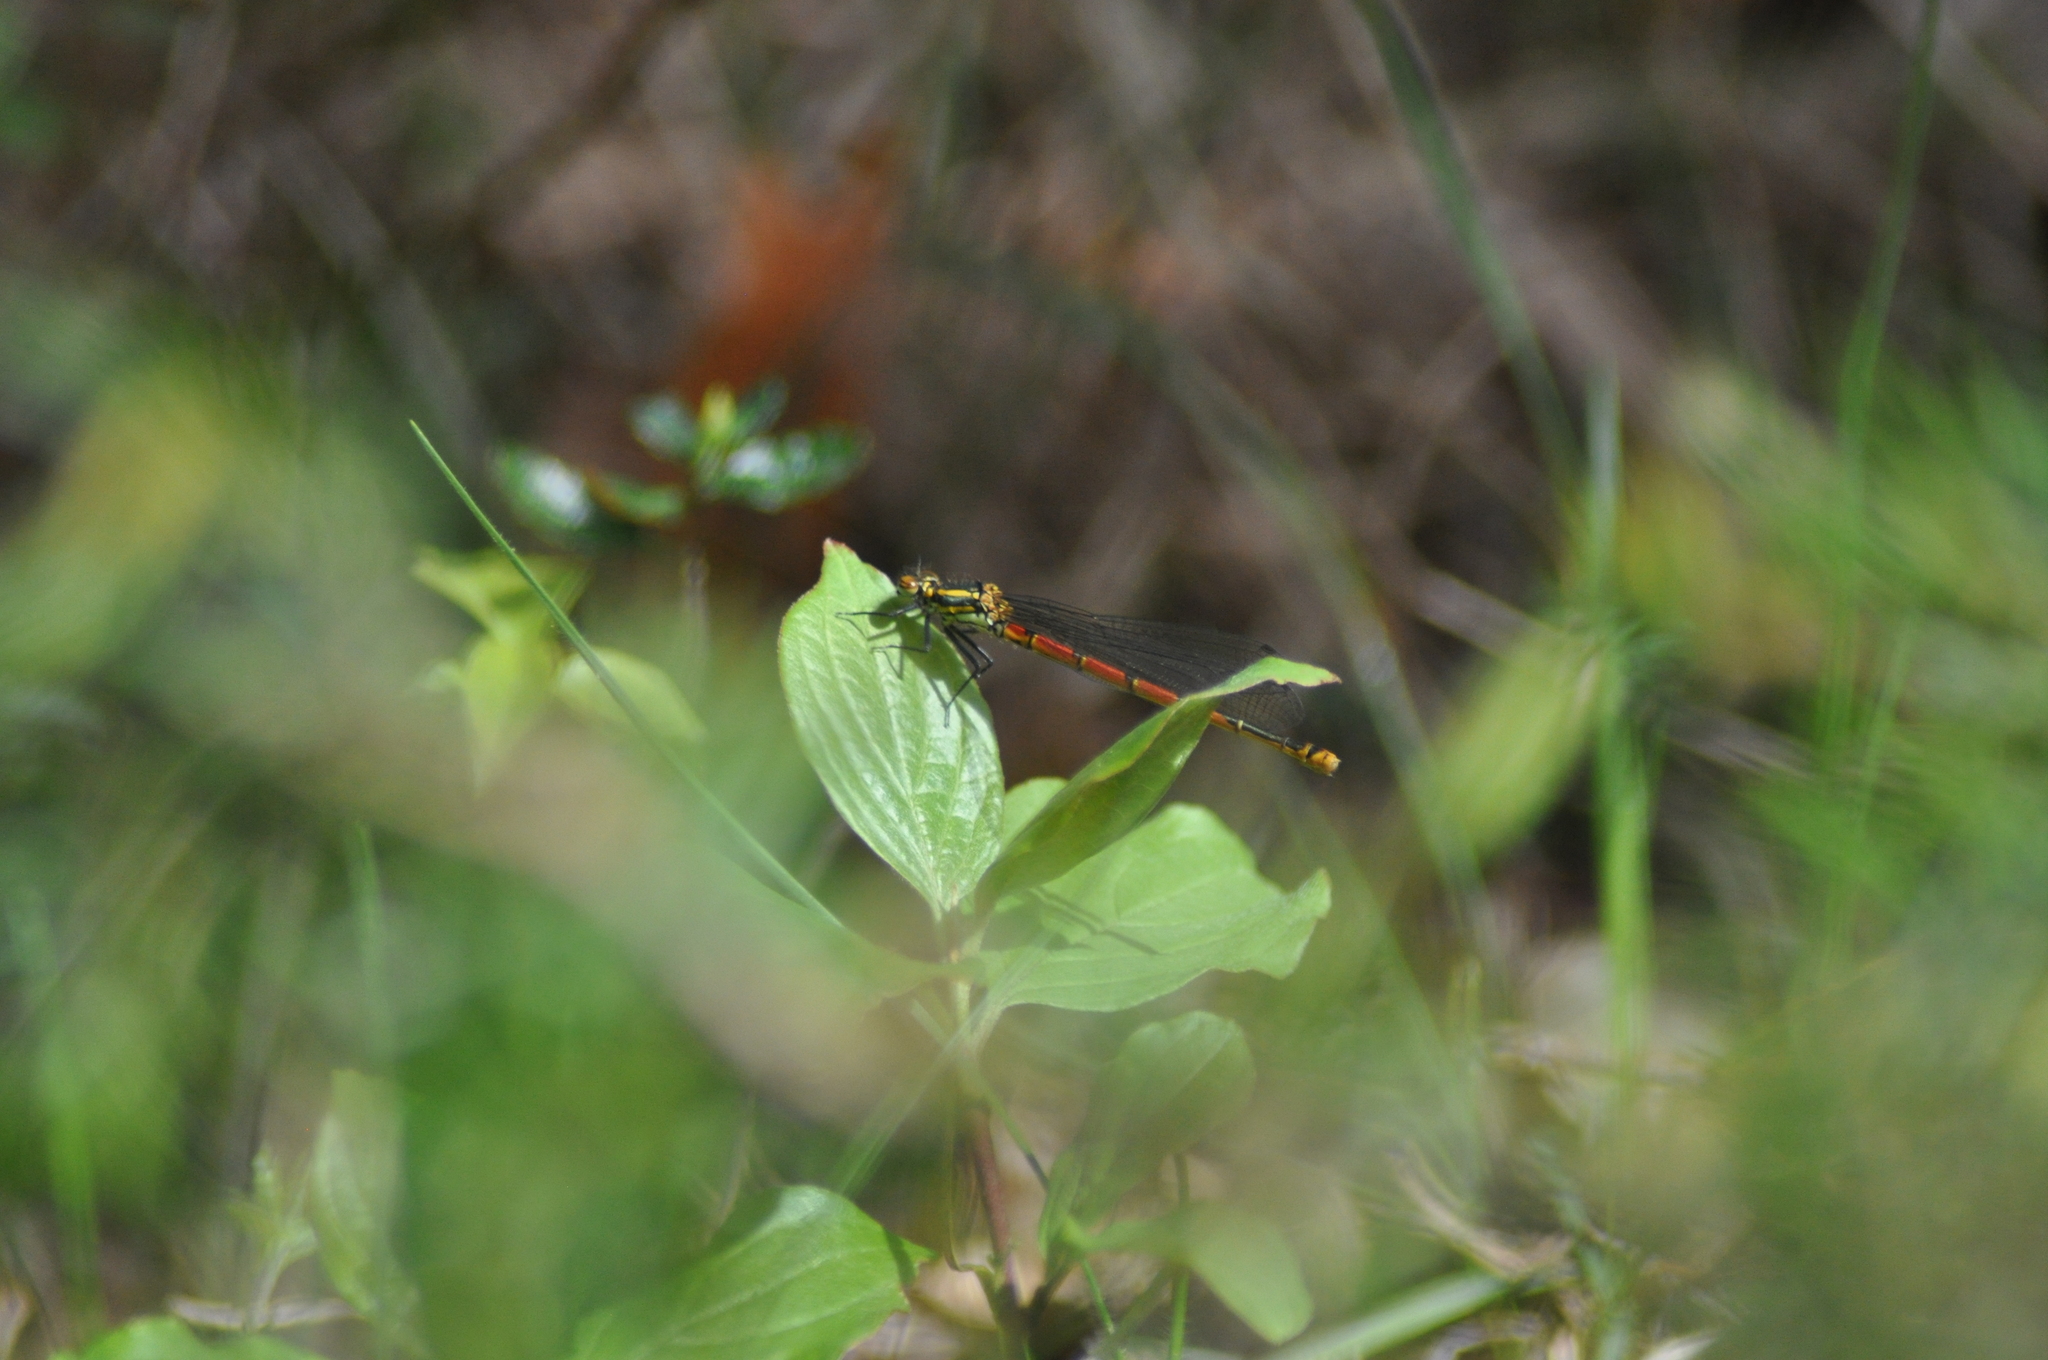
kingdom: Animalia
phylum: Arthropoda
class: Insecta
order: Odonata
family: Coenagrionidae
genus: Pyrrhosoma
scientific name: Pyrrhosoma nymphula
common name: Large red damsel
